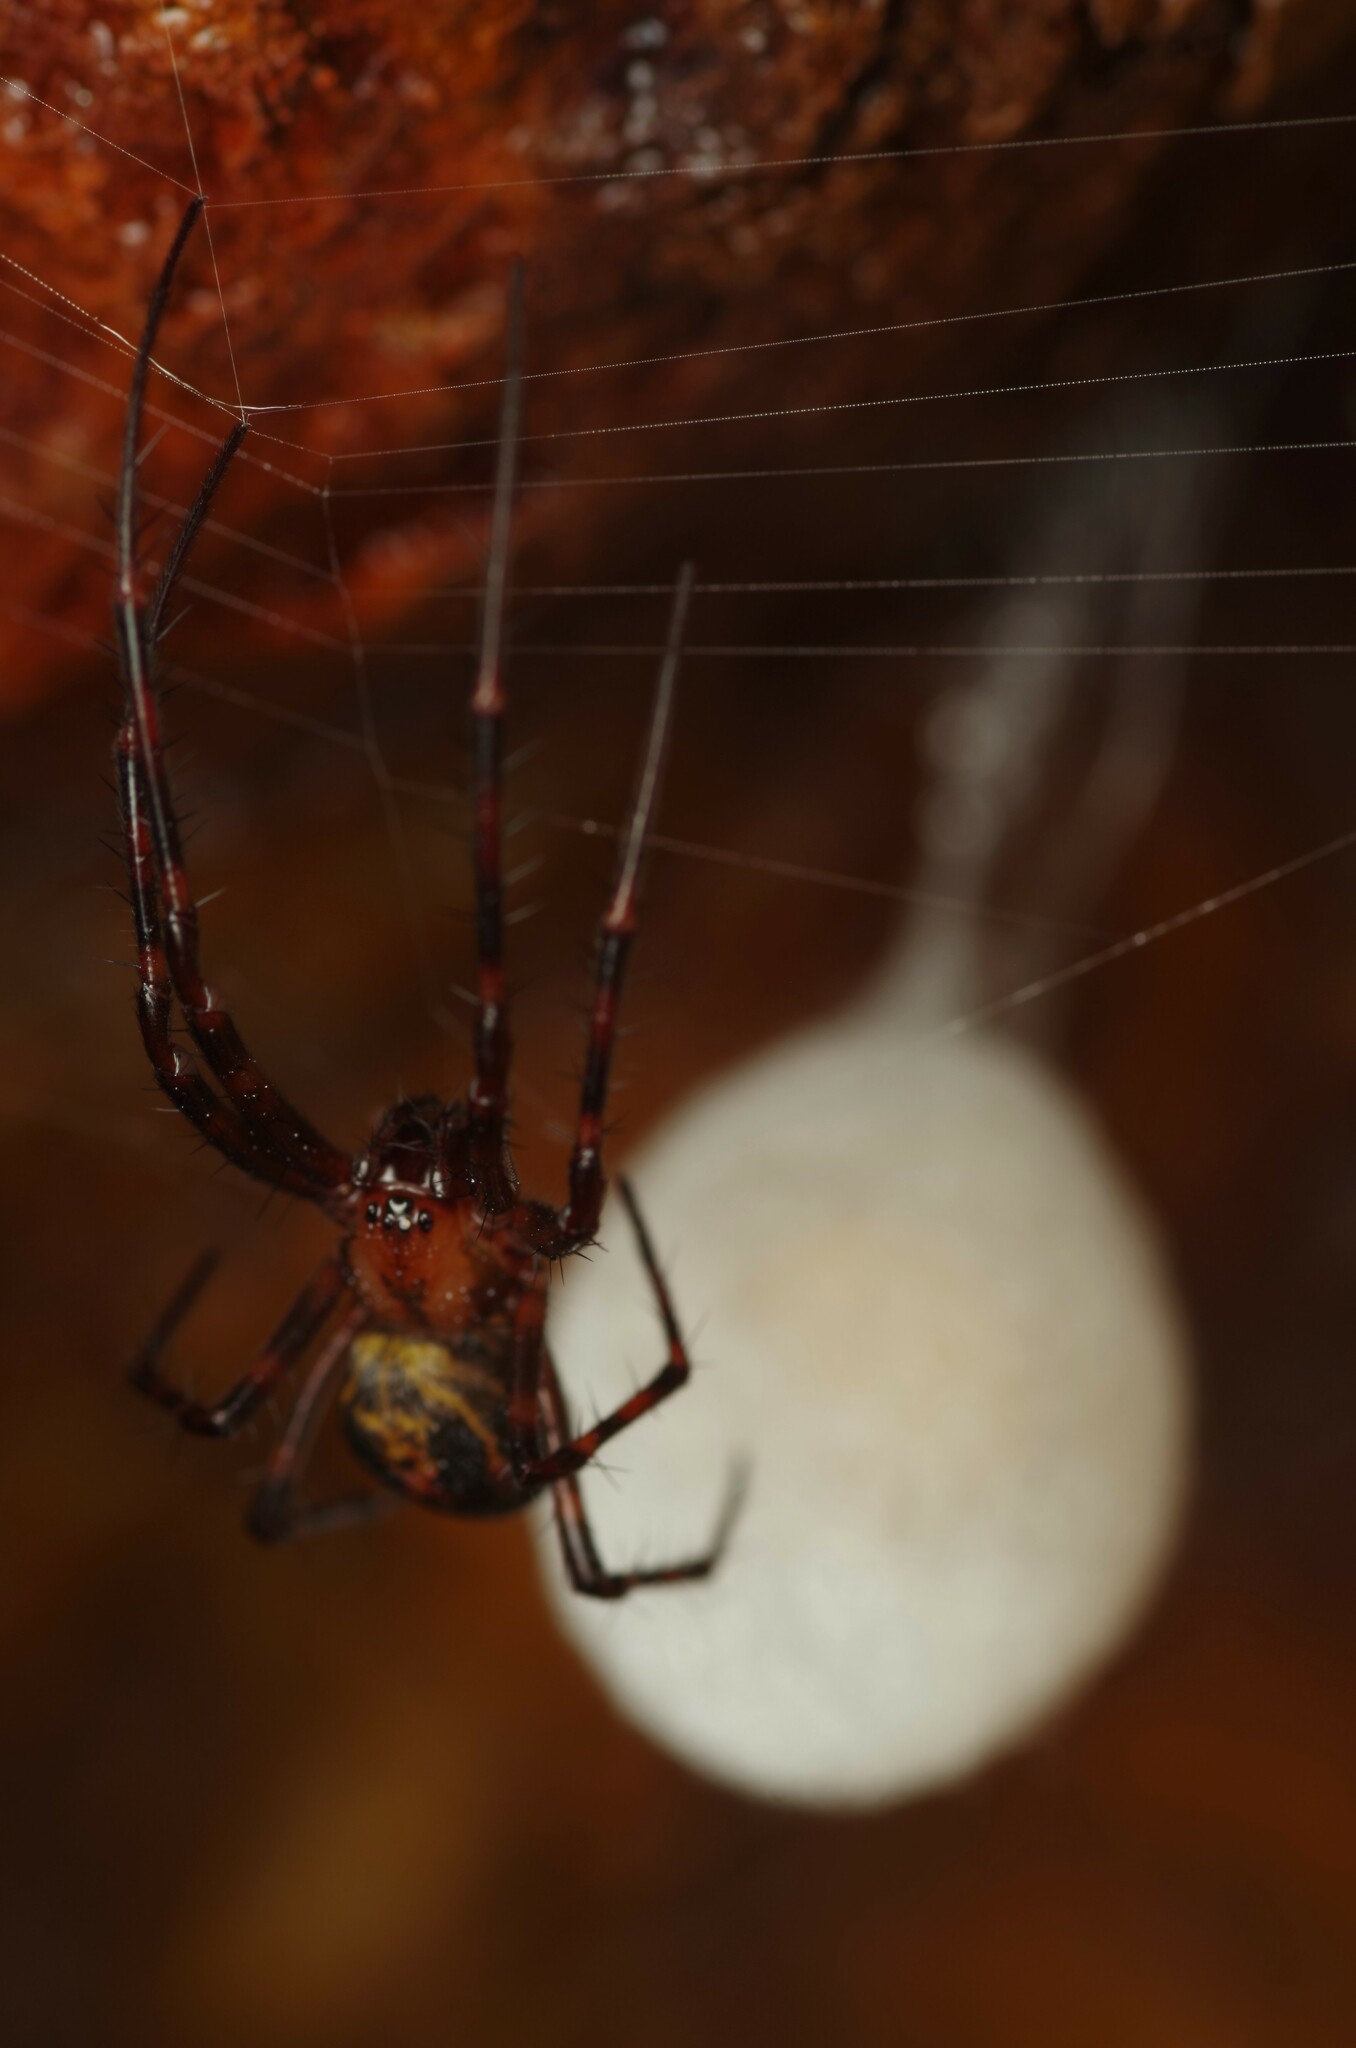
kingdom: Animalia
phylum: Arthropoda
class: Arachnida
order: Araneae
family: Tetragnathidae
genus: Meta
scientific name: Meta menardi
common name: Cave spider
